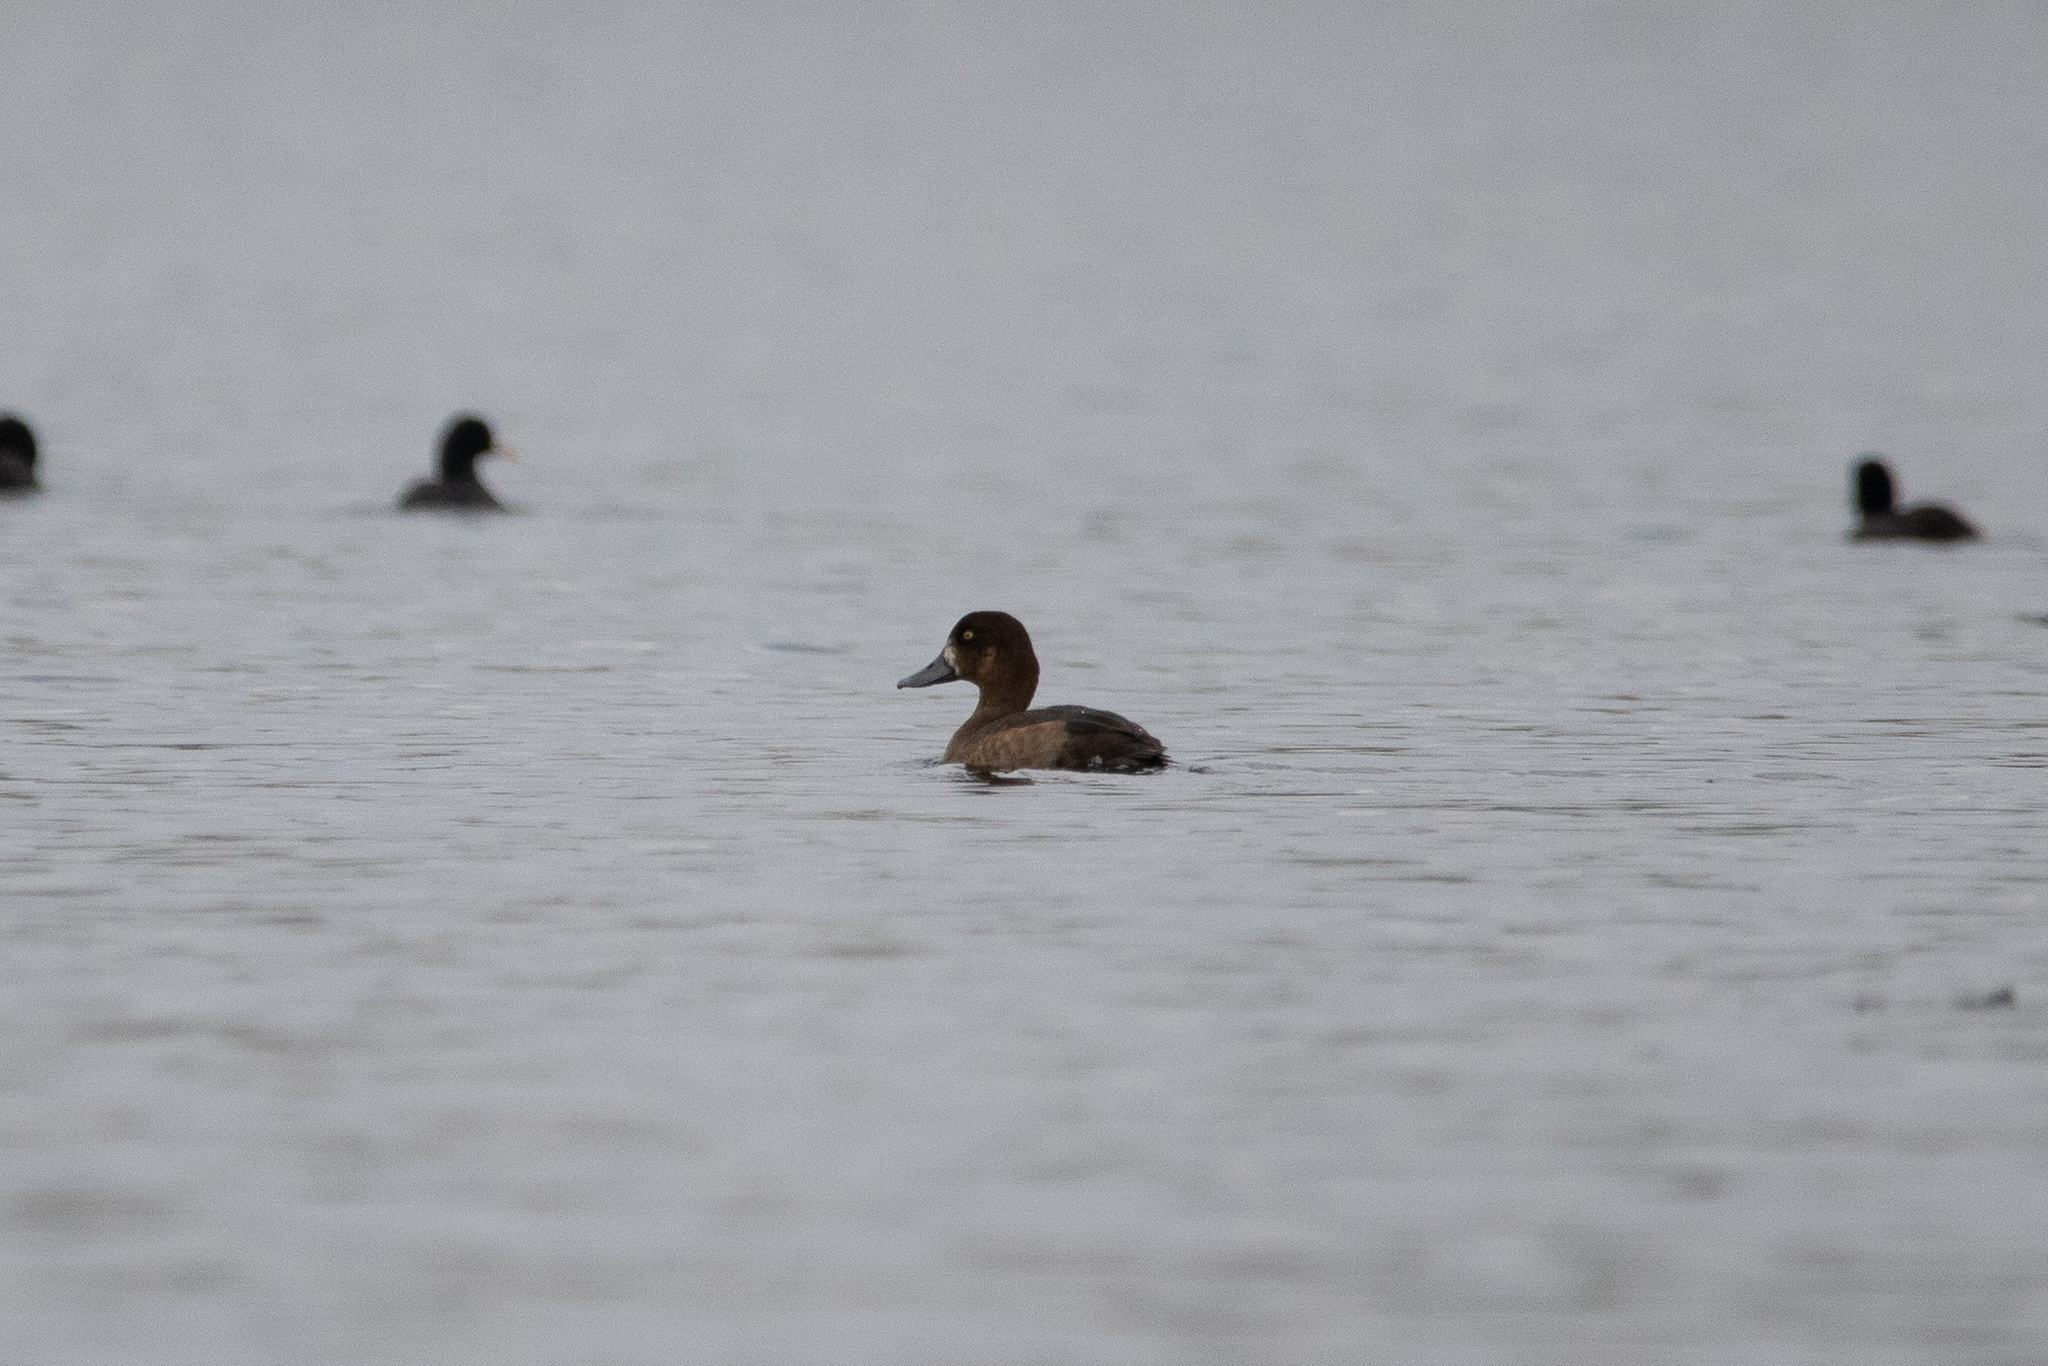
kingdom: Animalia
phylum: Chordata
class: Aves
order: Anseriformes
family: Anatidae
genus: Aythya
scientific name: Aythya marila
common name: Greater scaup
